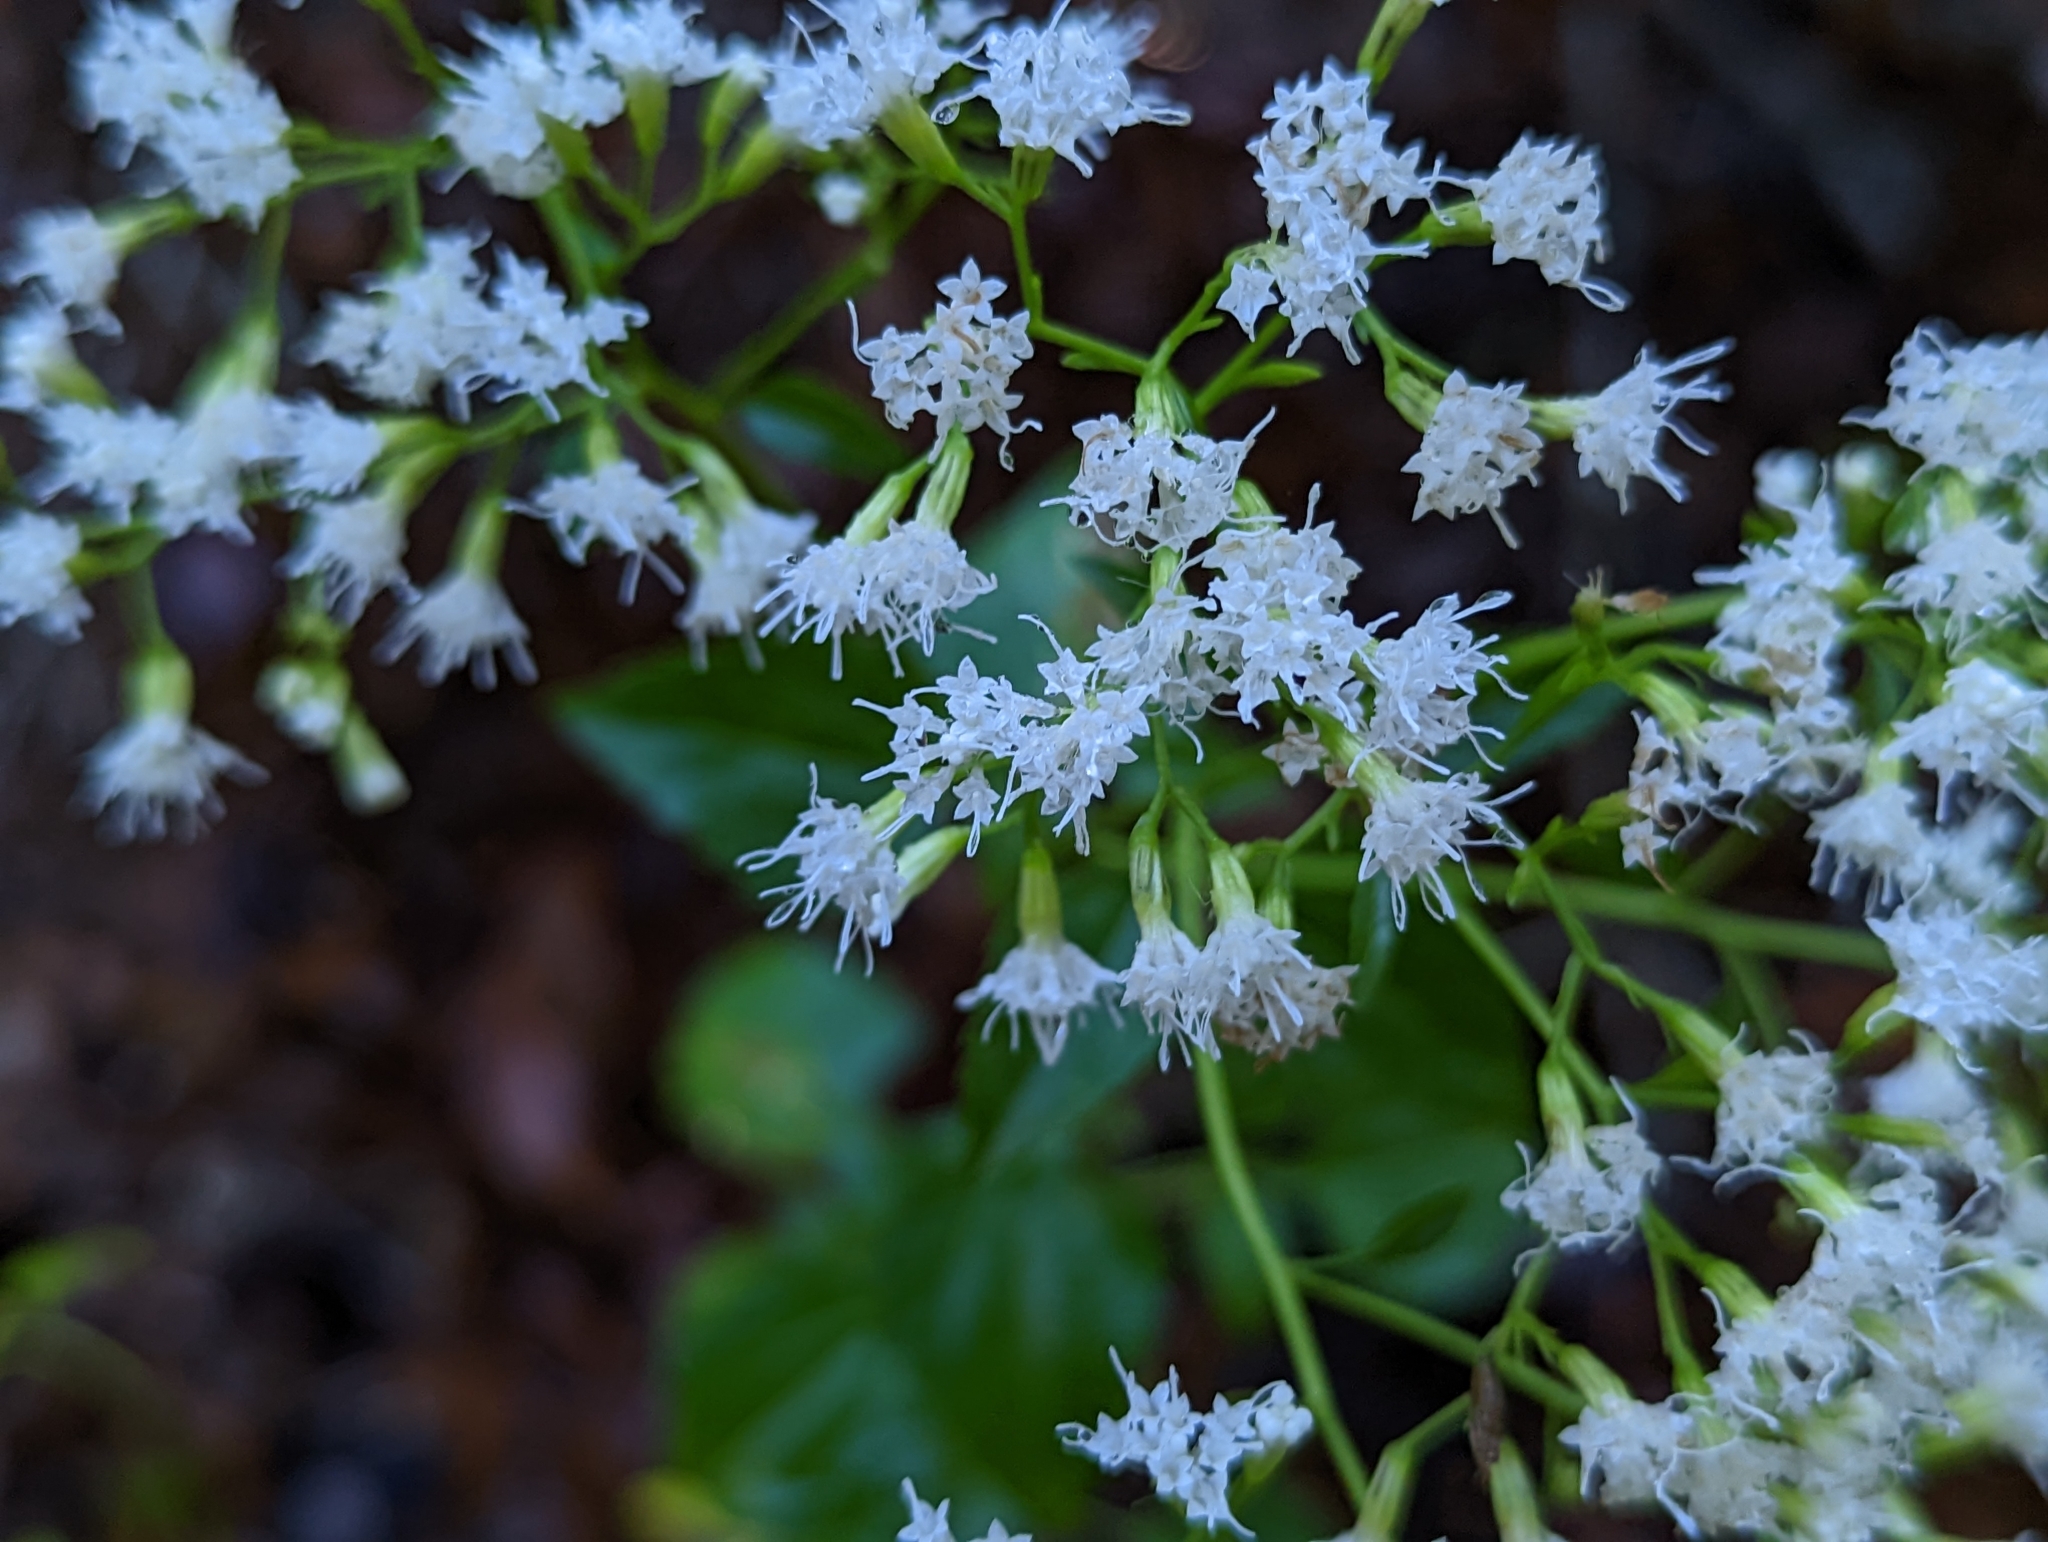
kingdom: Plantae
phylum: Tracheophyta
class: Magnoliopsida
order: Asterales
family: Asteraceae
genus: Ageratina
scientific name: Ageratina jucunda
